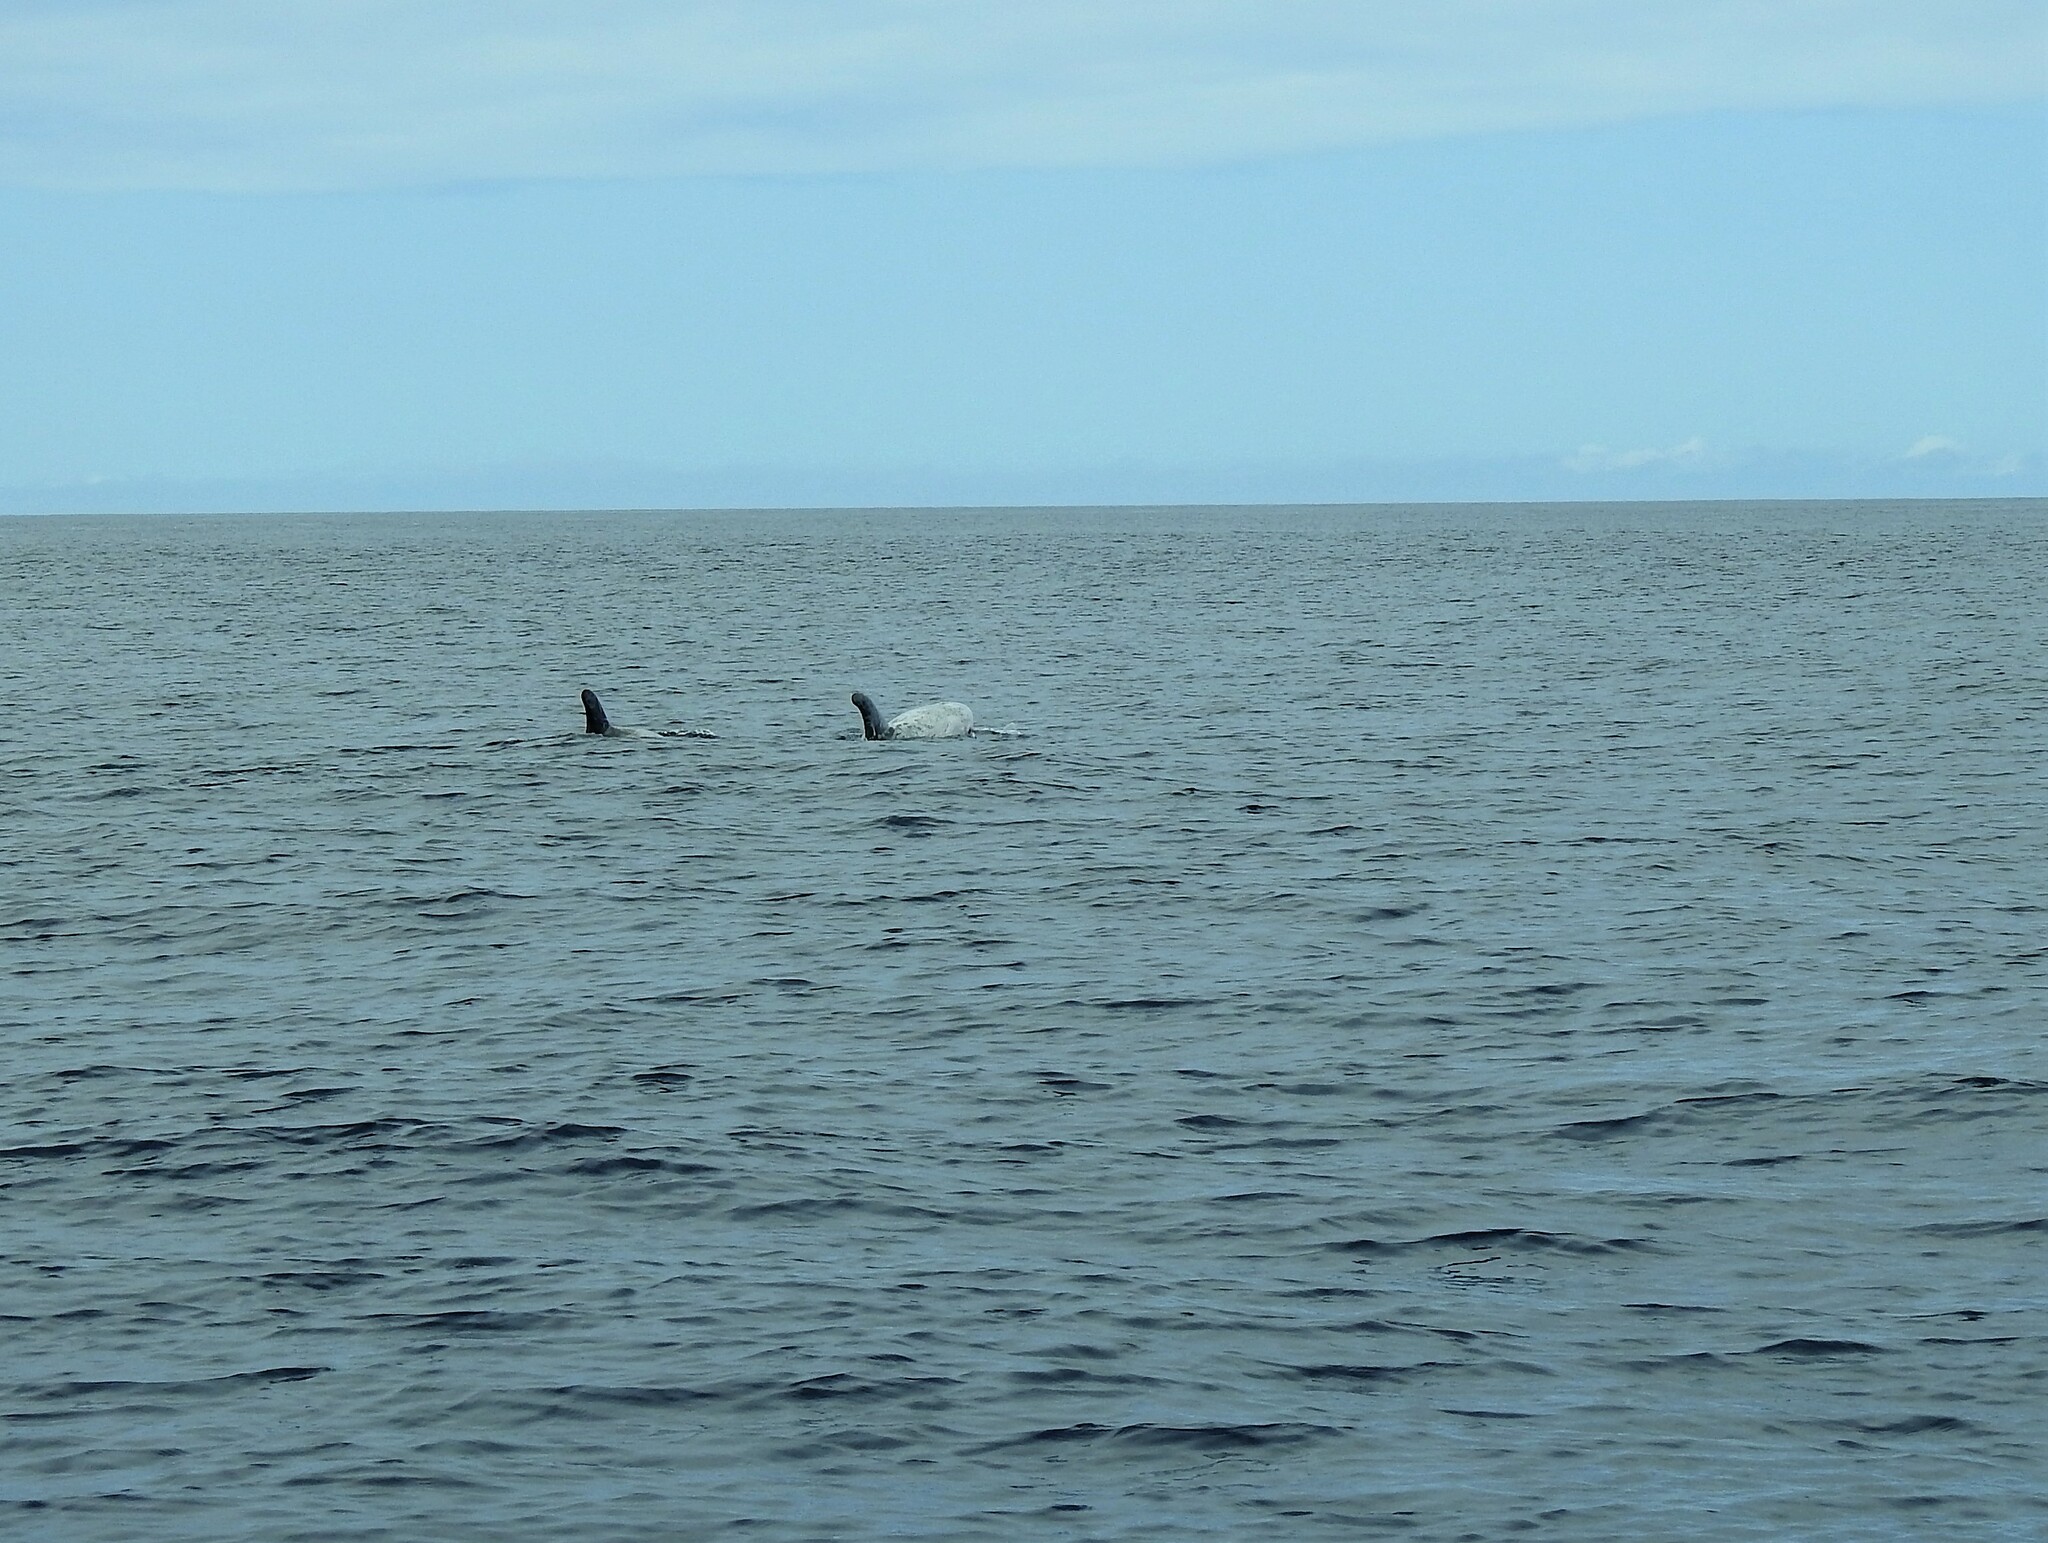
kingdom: Animalia
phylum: Chordata
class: Mammalia
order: Cetacea
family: Delphinidae
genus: Grampus
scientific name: Grampus griseus
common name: Risso's dolphin
